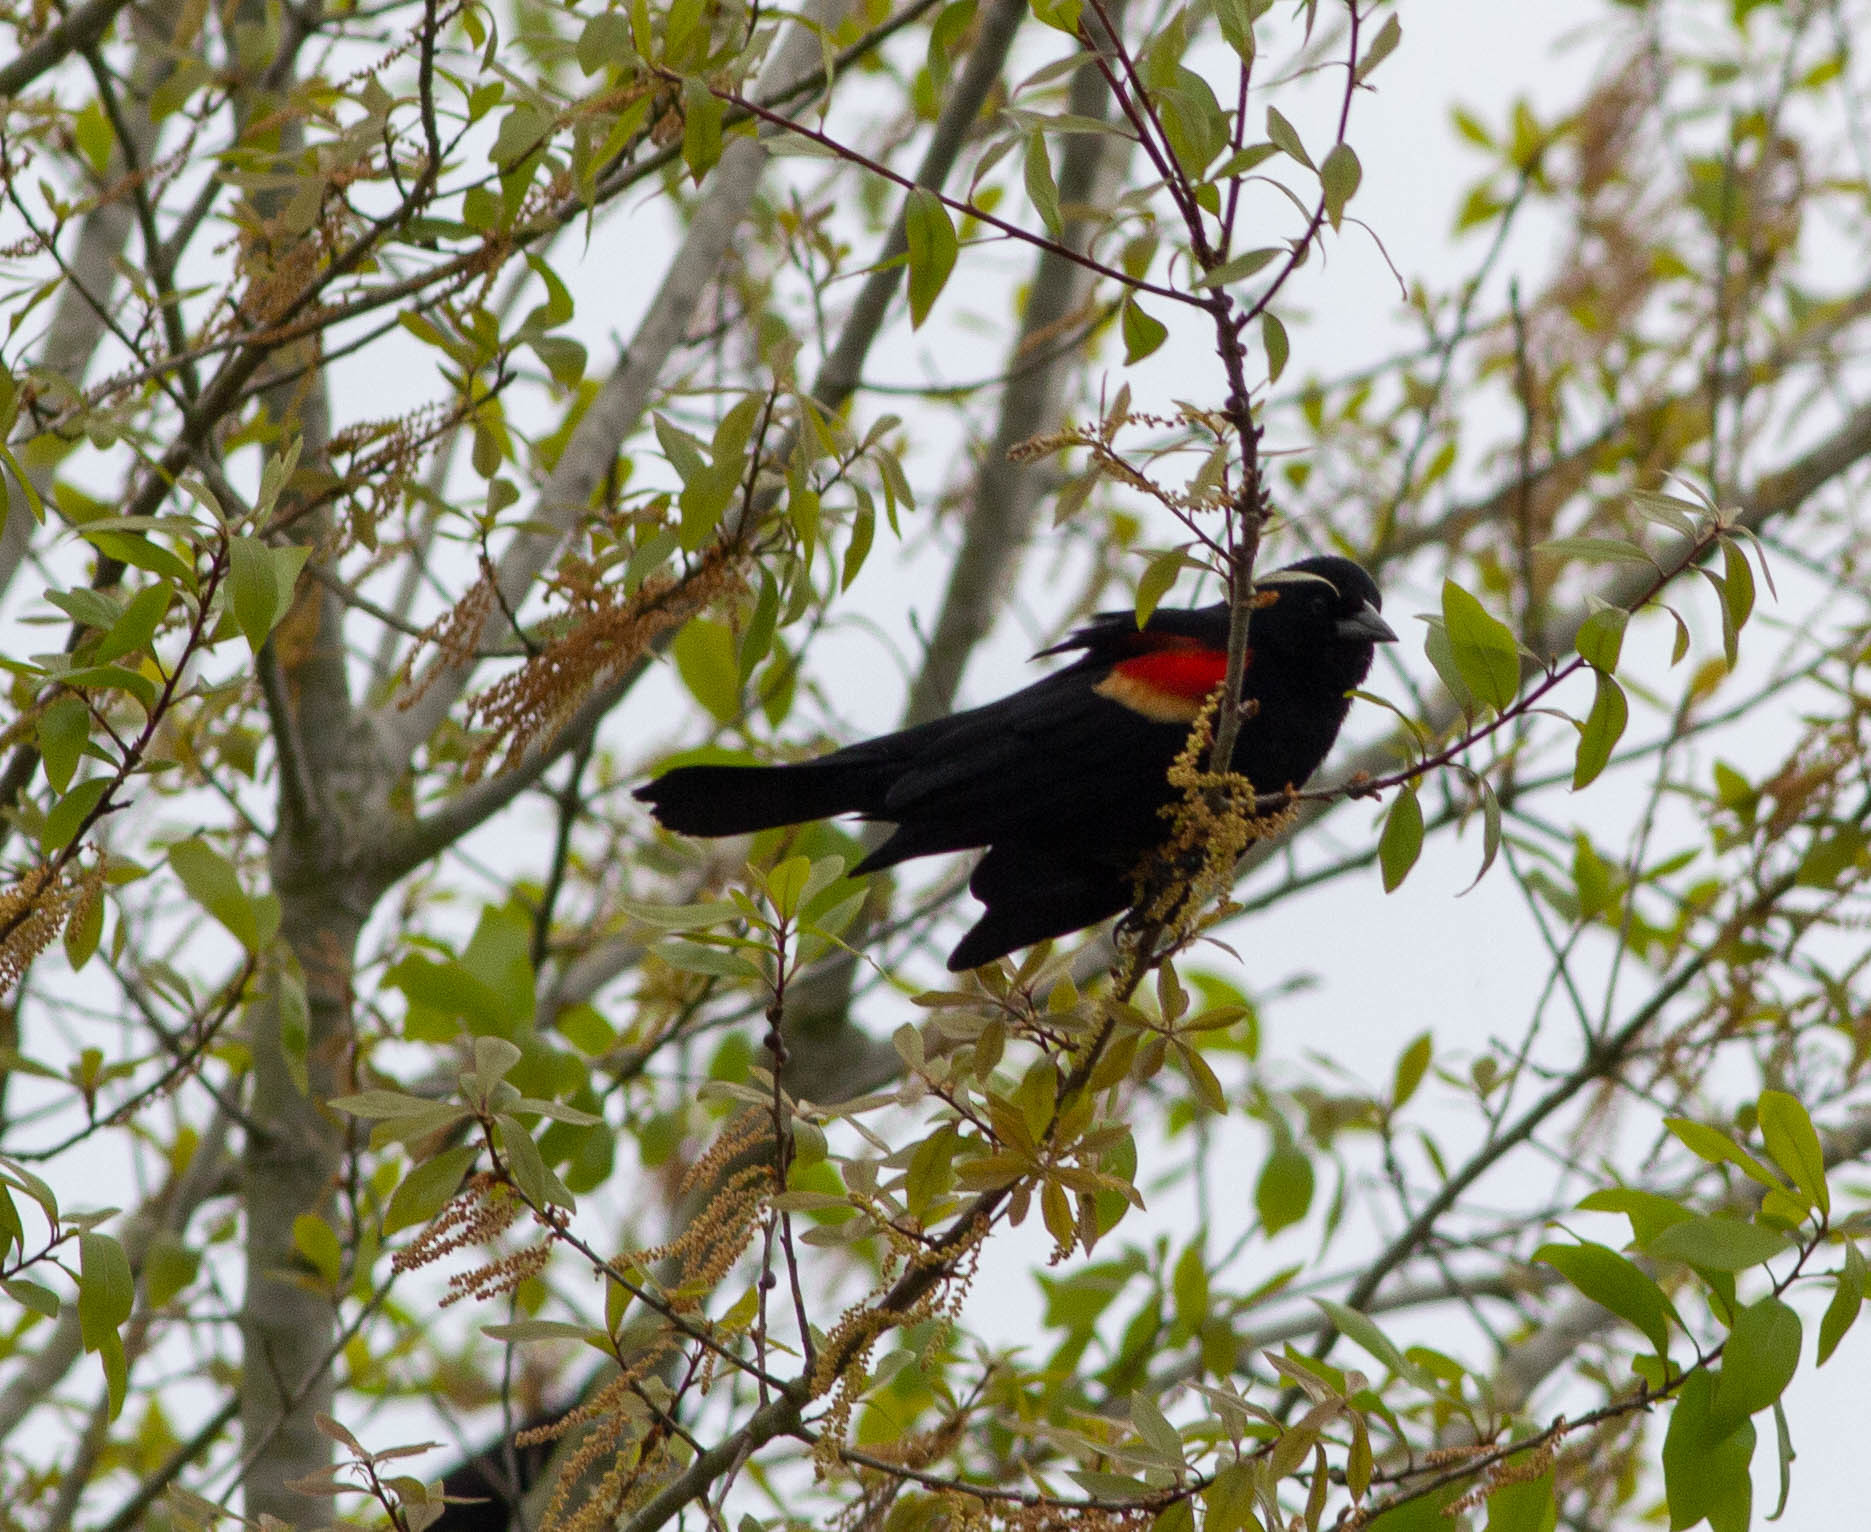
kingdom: Animalia
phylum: Chordata
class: Aves
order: Passeriformes
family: Icteridae
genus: Agelaius
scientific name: Agelaius phoeniceus
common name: Red-winged blackbird
